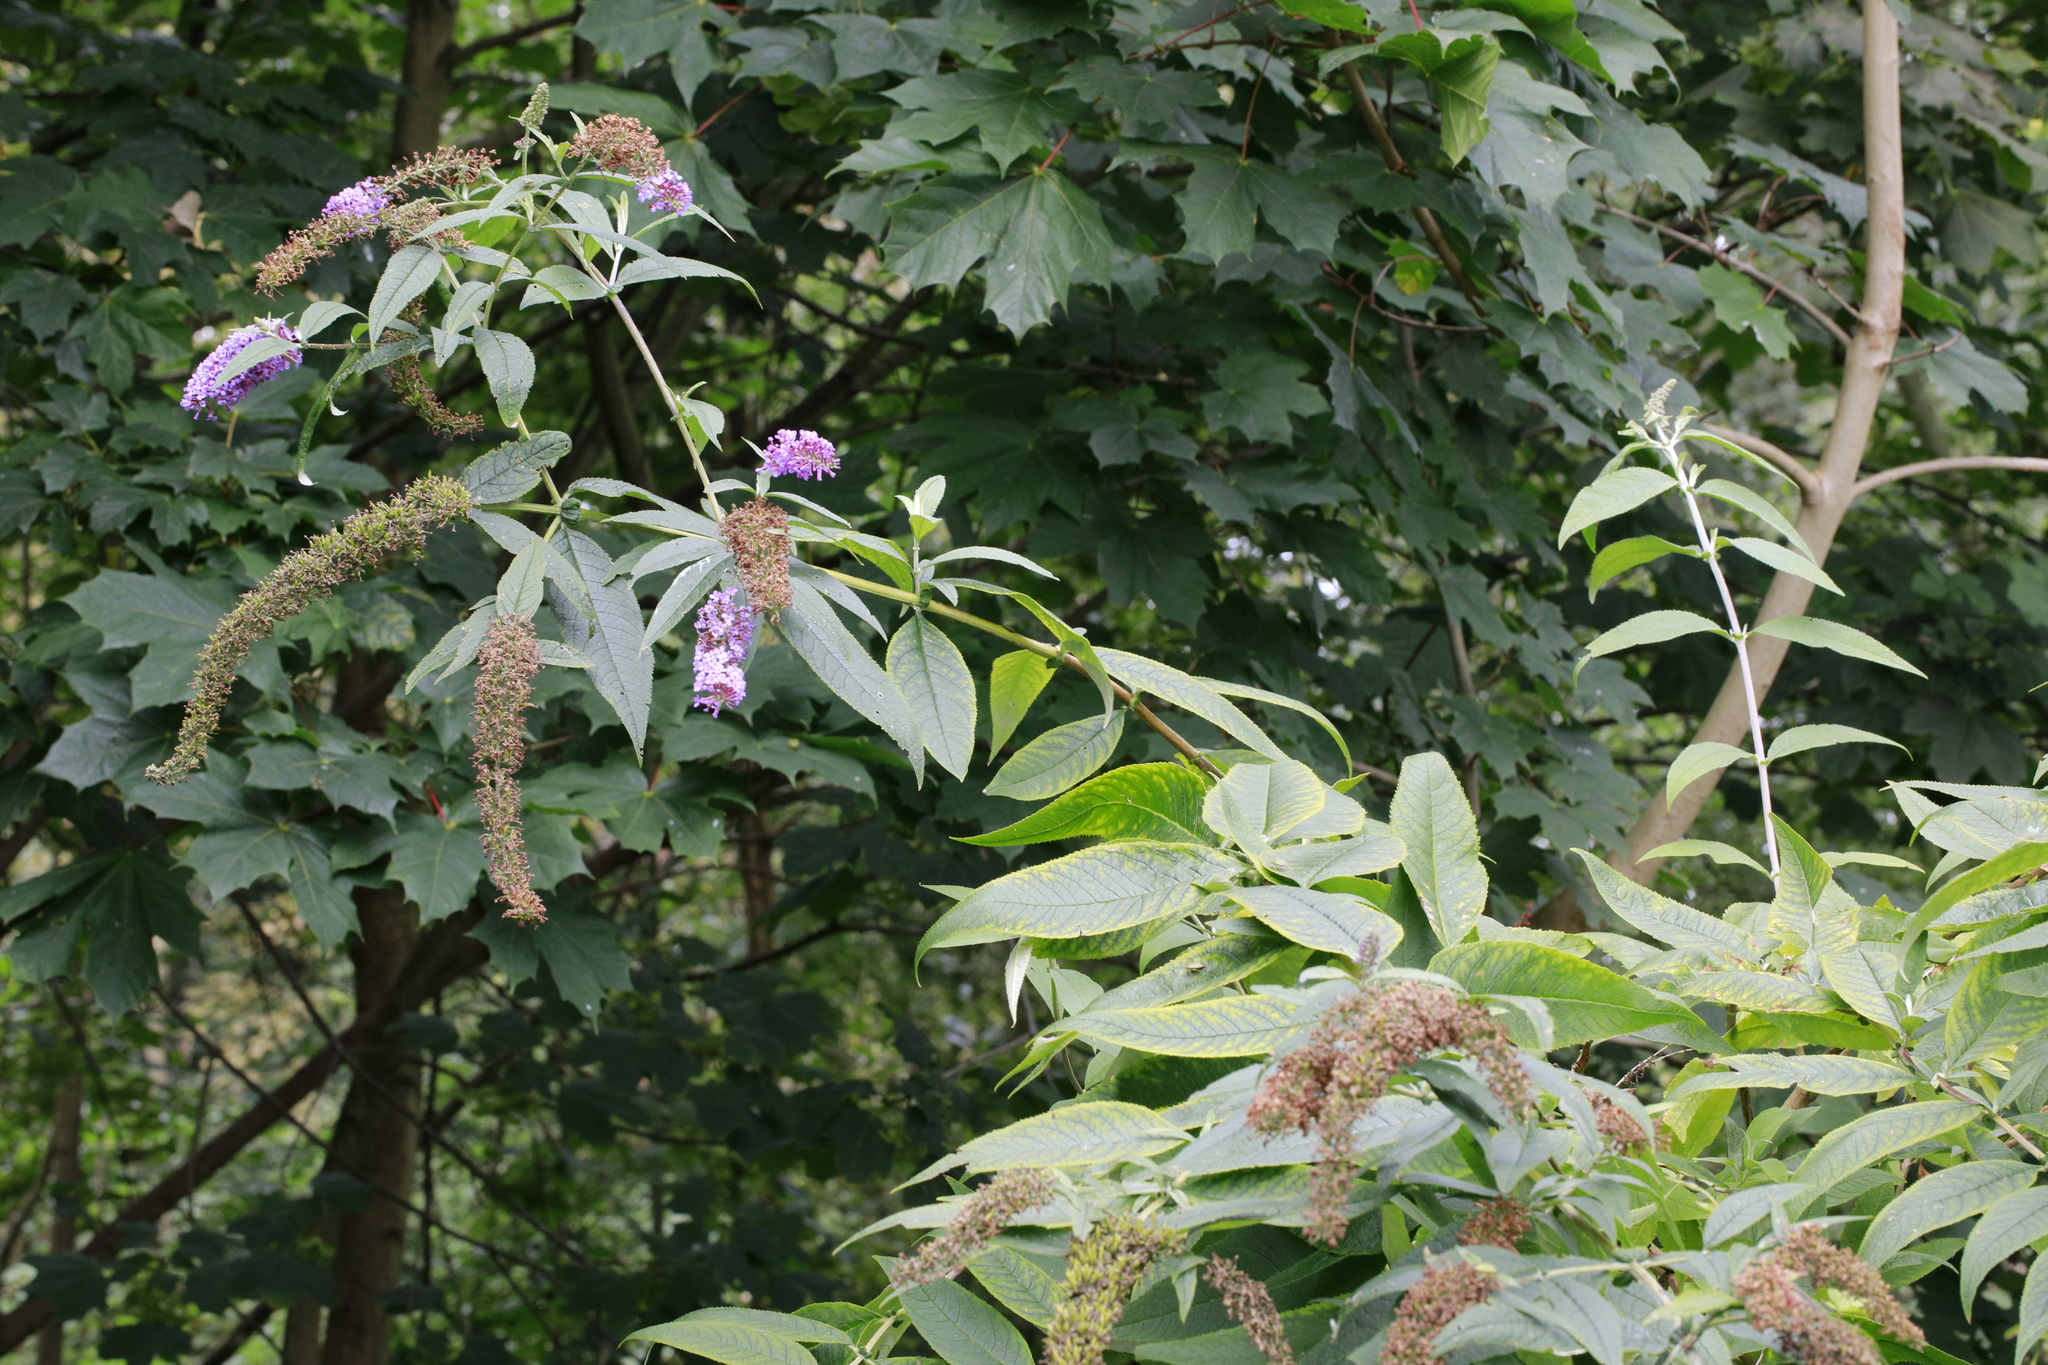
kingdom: Plantae
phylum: Tracheophyta
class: Magnoliopsida
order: Lamiales
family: Scrophulariaceae
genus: Buddleja
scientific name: Buddleja davidii
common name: Butterfly-bush
